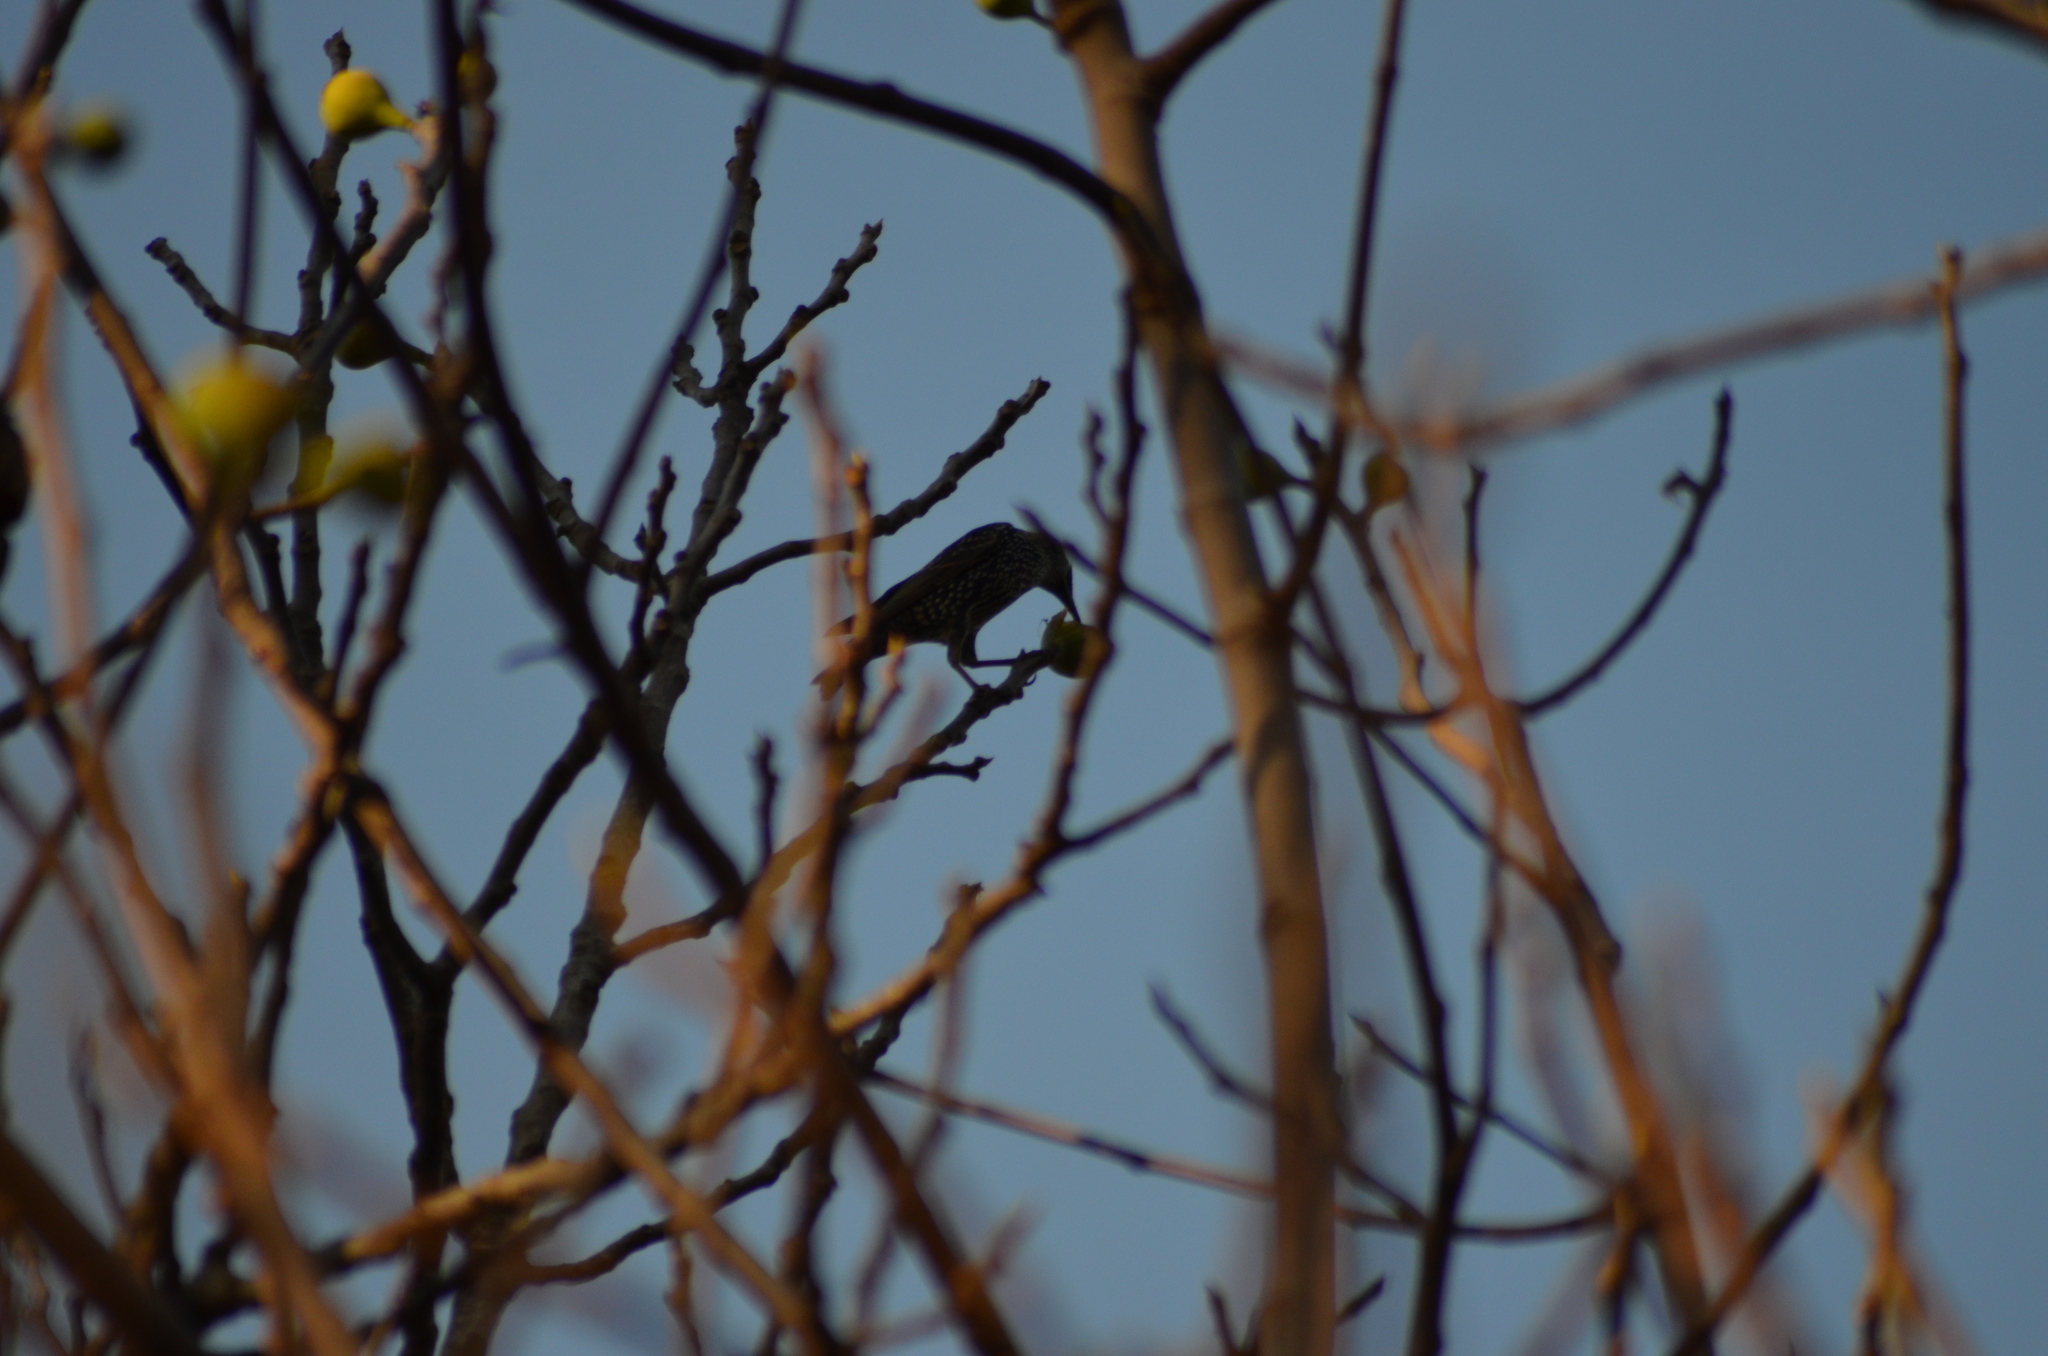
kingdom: Animalia
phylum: Chordata
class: Aves
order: Passeriformes
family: Sturnidae
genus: Sturnus
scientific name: Sturnus vulgaris
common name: Common starling
